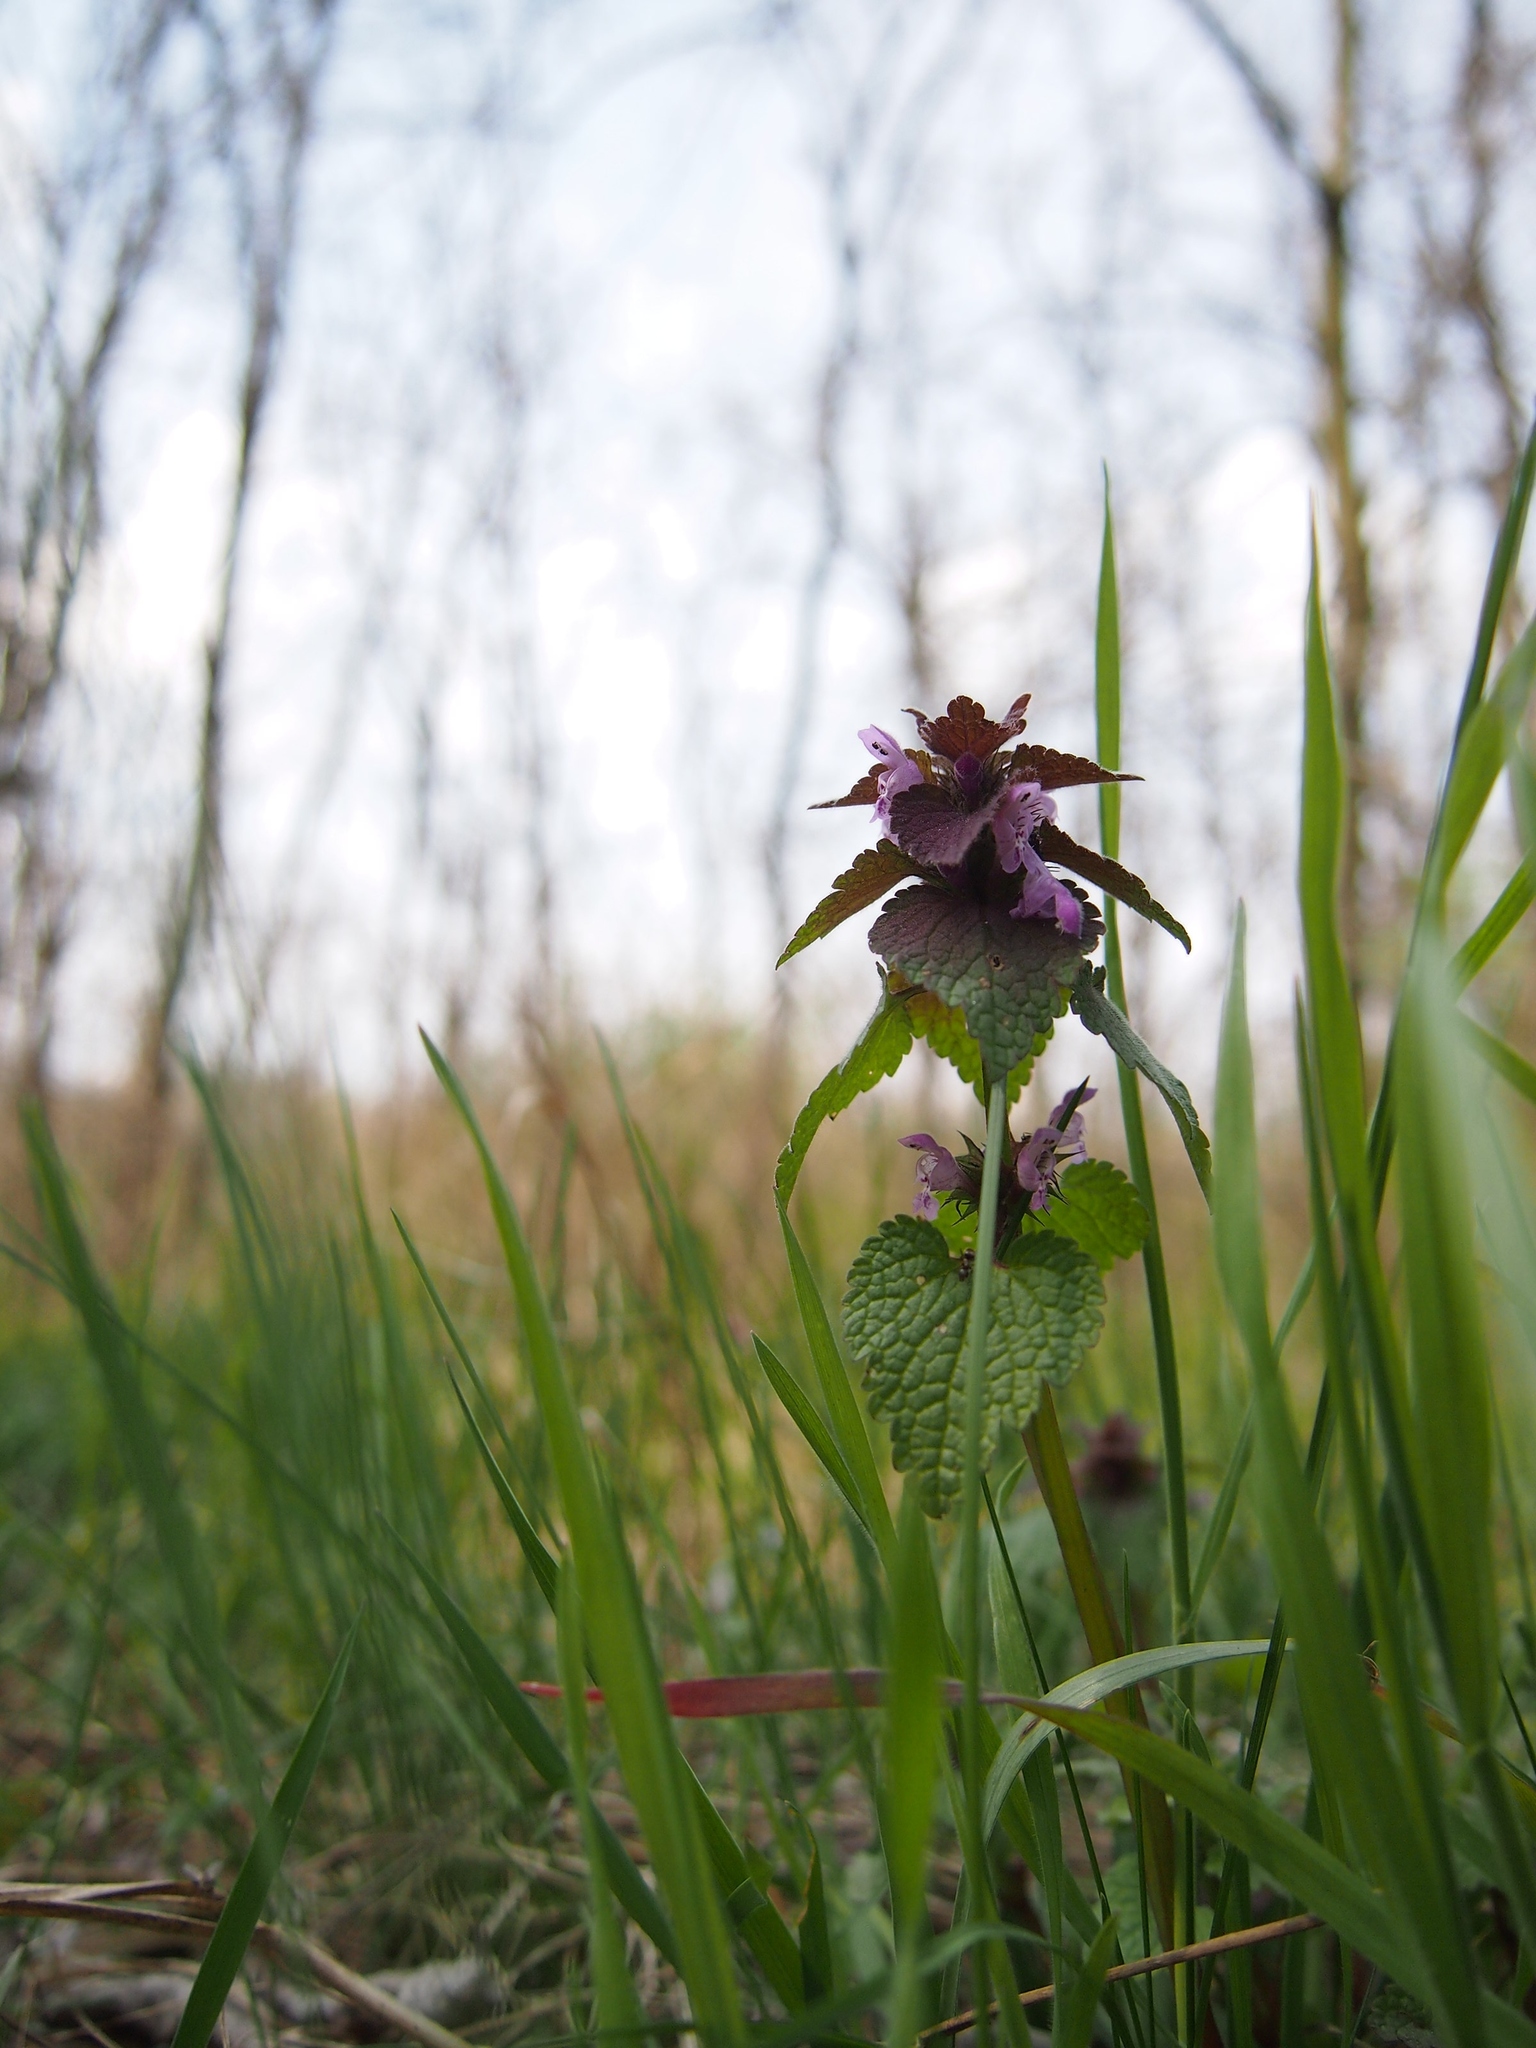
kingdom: Plantae
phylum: Tracheophyta
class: Magnoliopsida
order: Lamiales
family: Lamiaceae
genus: Lamium
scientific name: Lamium purpureum
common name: Red dead-nettle
